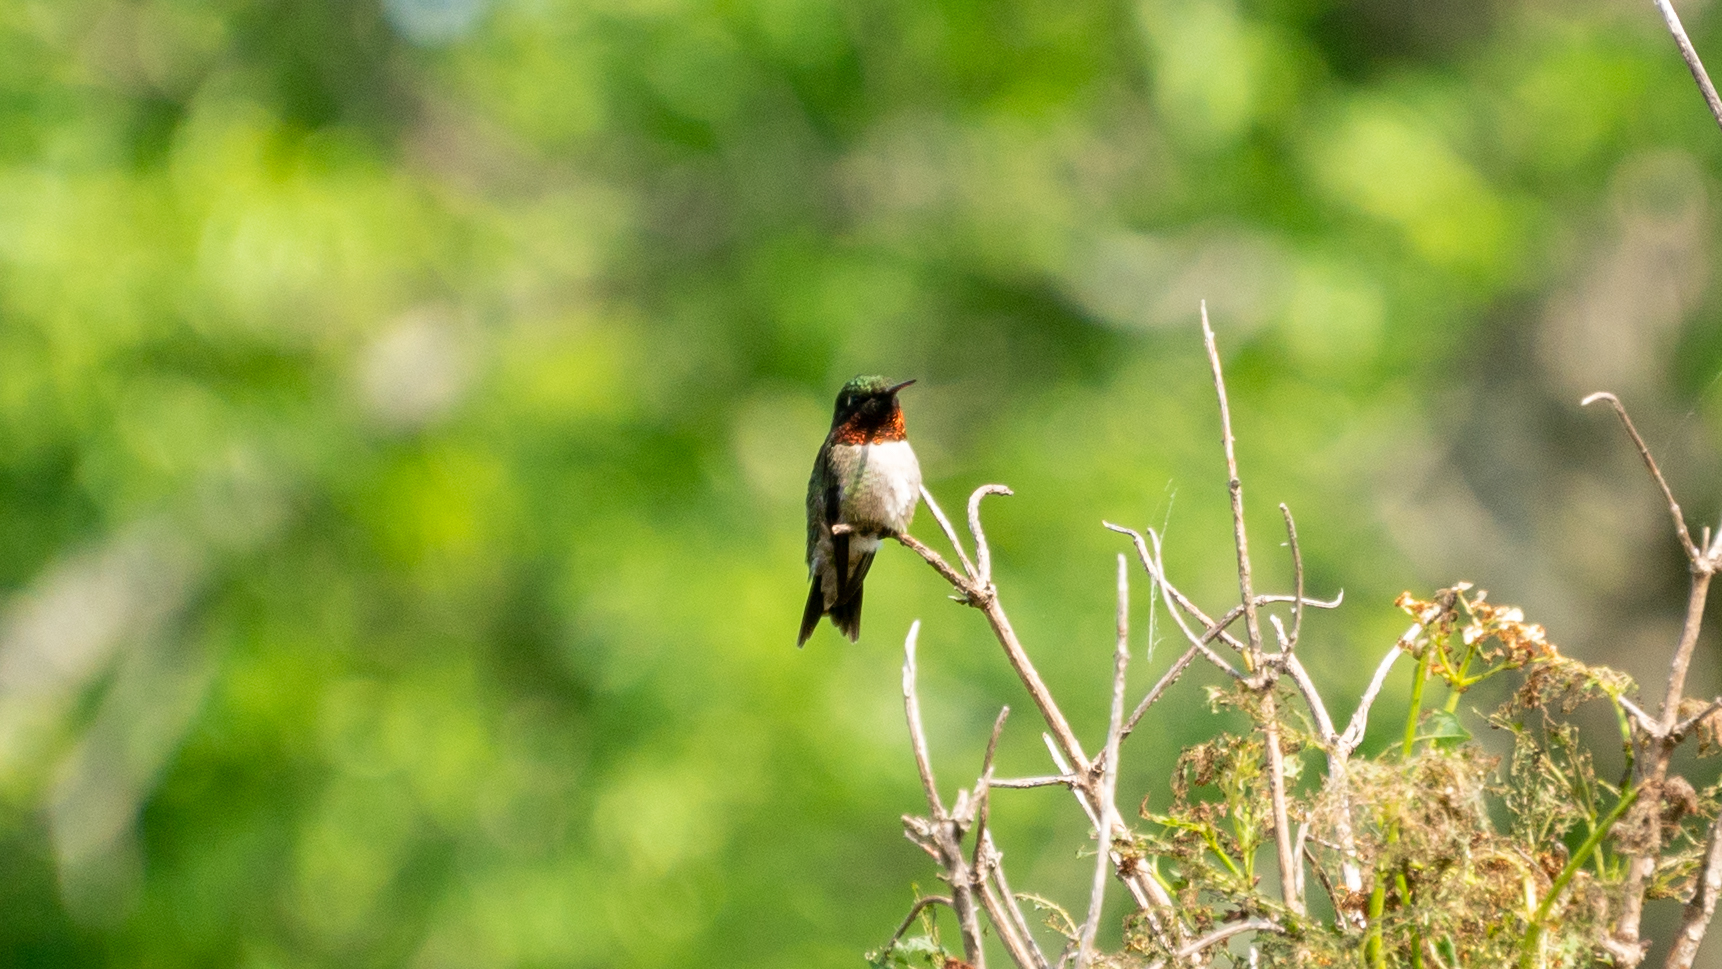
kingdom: Animalia
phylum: Chordata
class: Aves
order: Apodiformes
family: Trochilidae
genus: Archilochus
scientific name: Archilochus colubris
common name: Ruby-throated hummingbird
